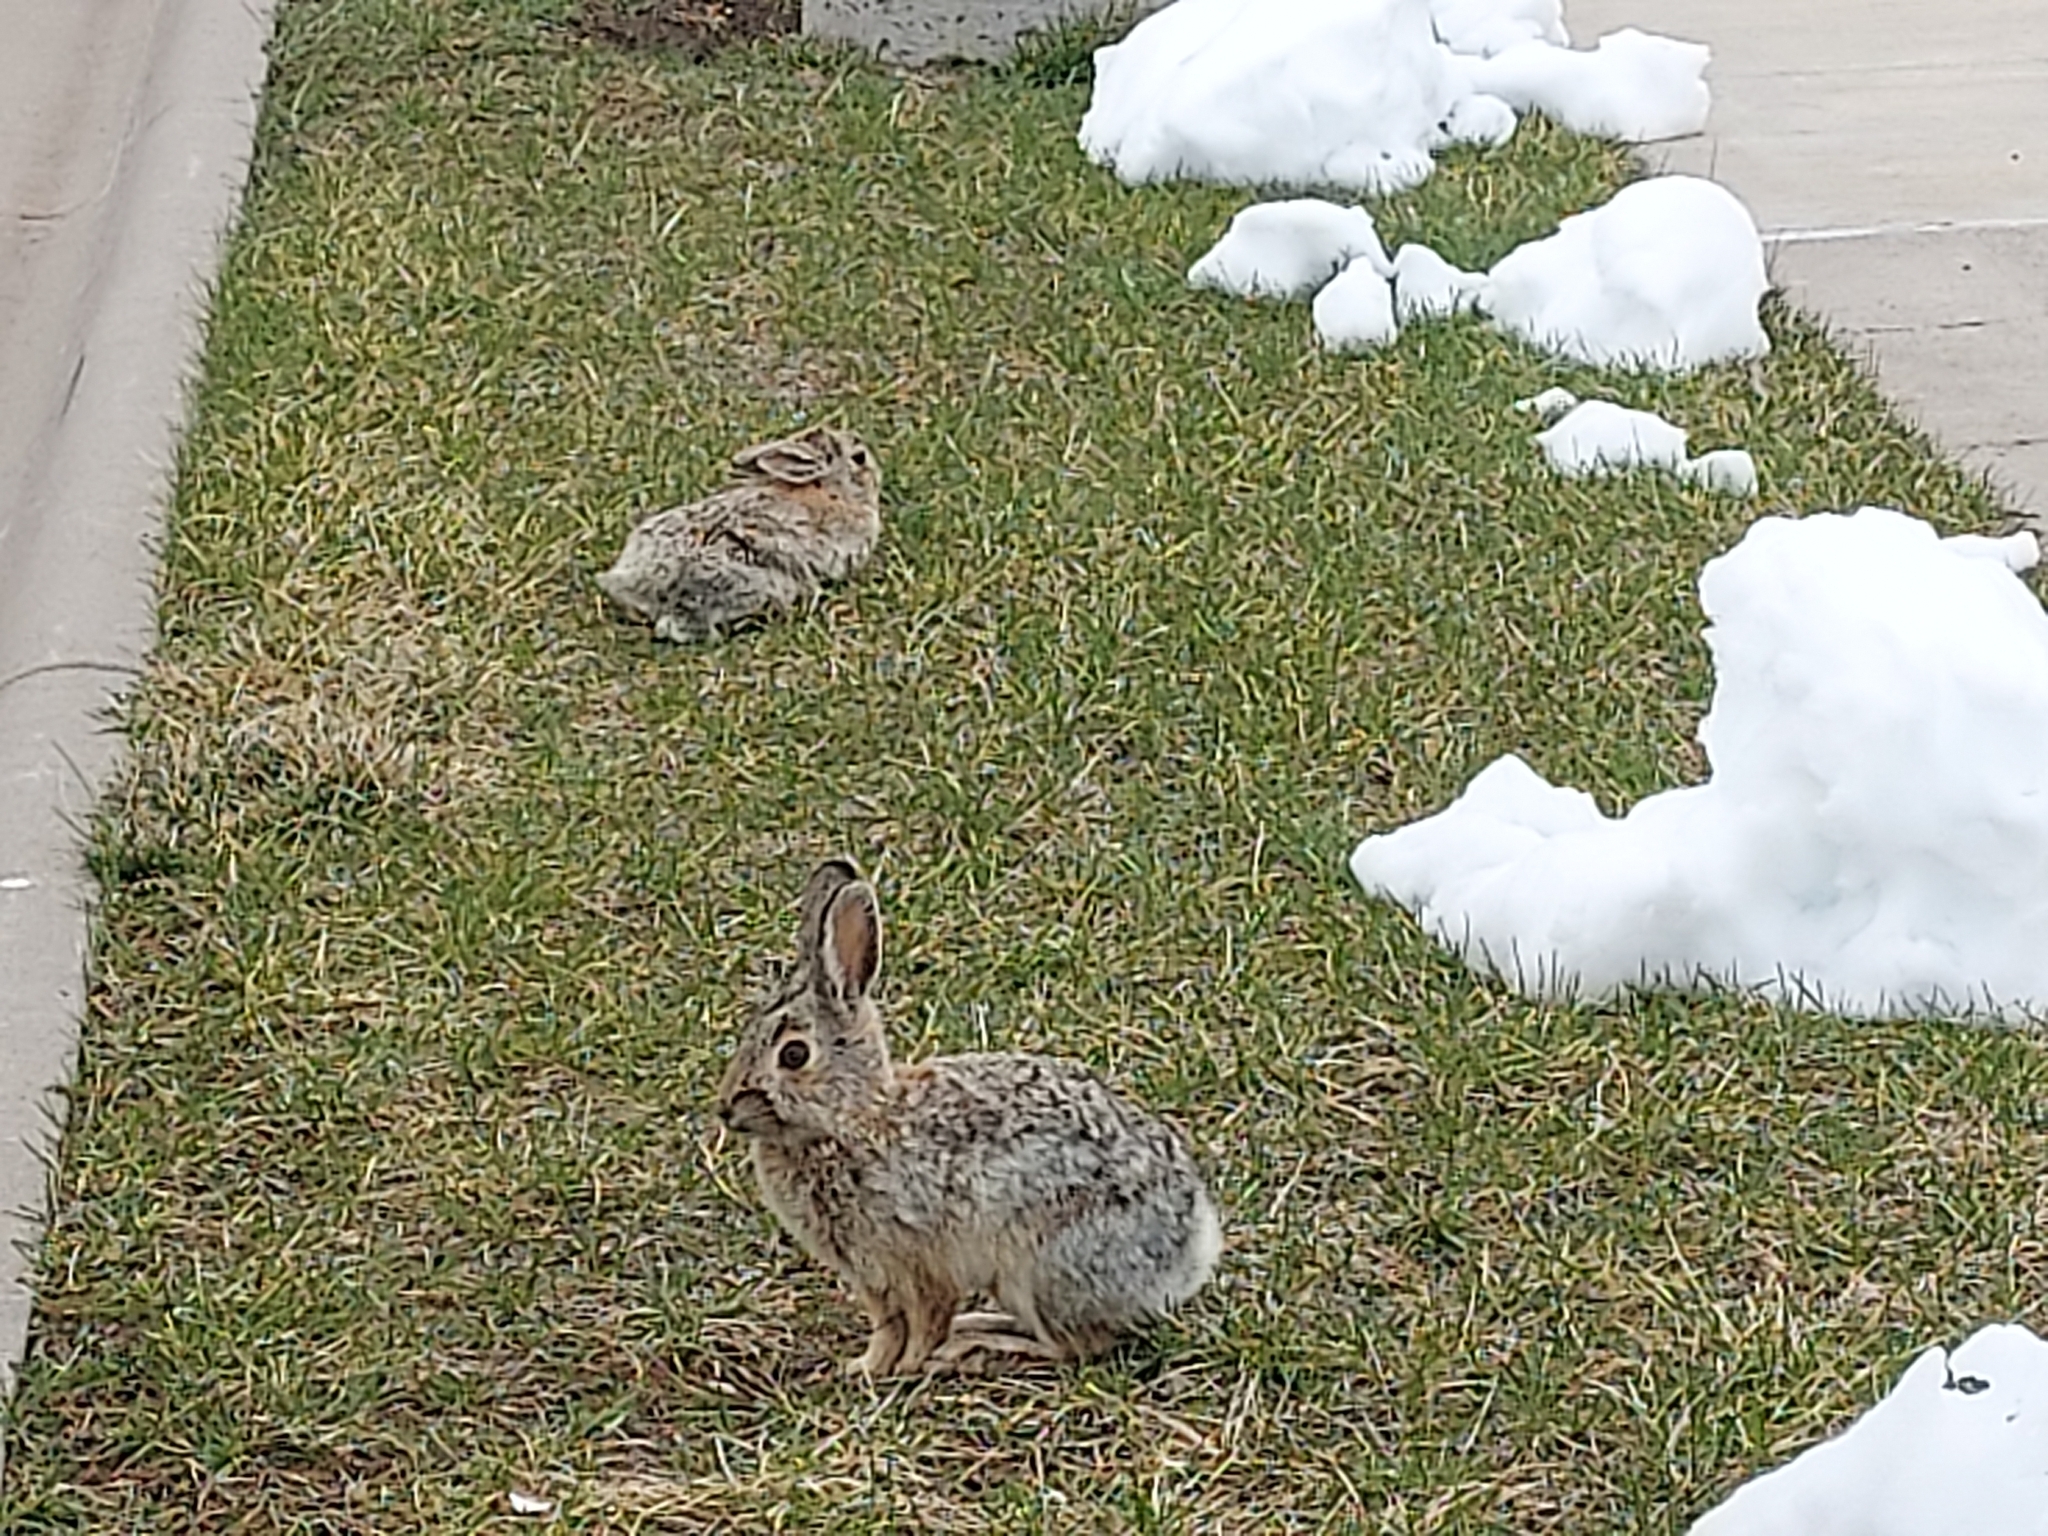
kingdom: Animalia
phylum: Chordata
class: Mammalia
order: Lagomorpha
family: Leporidae
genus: Sylvilagus
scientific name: Sylvilagus nuttallii
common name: Mountain cottontail
